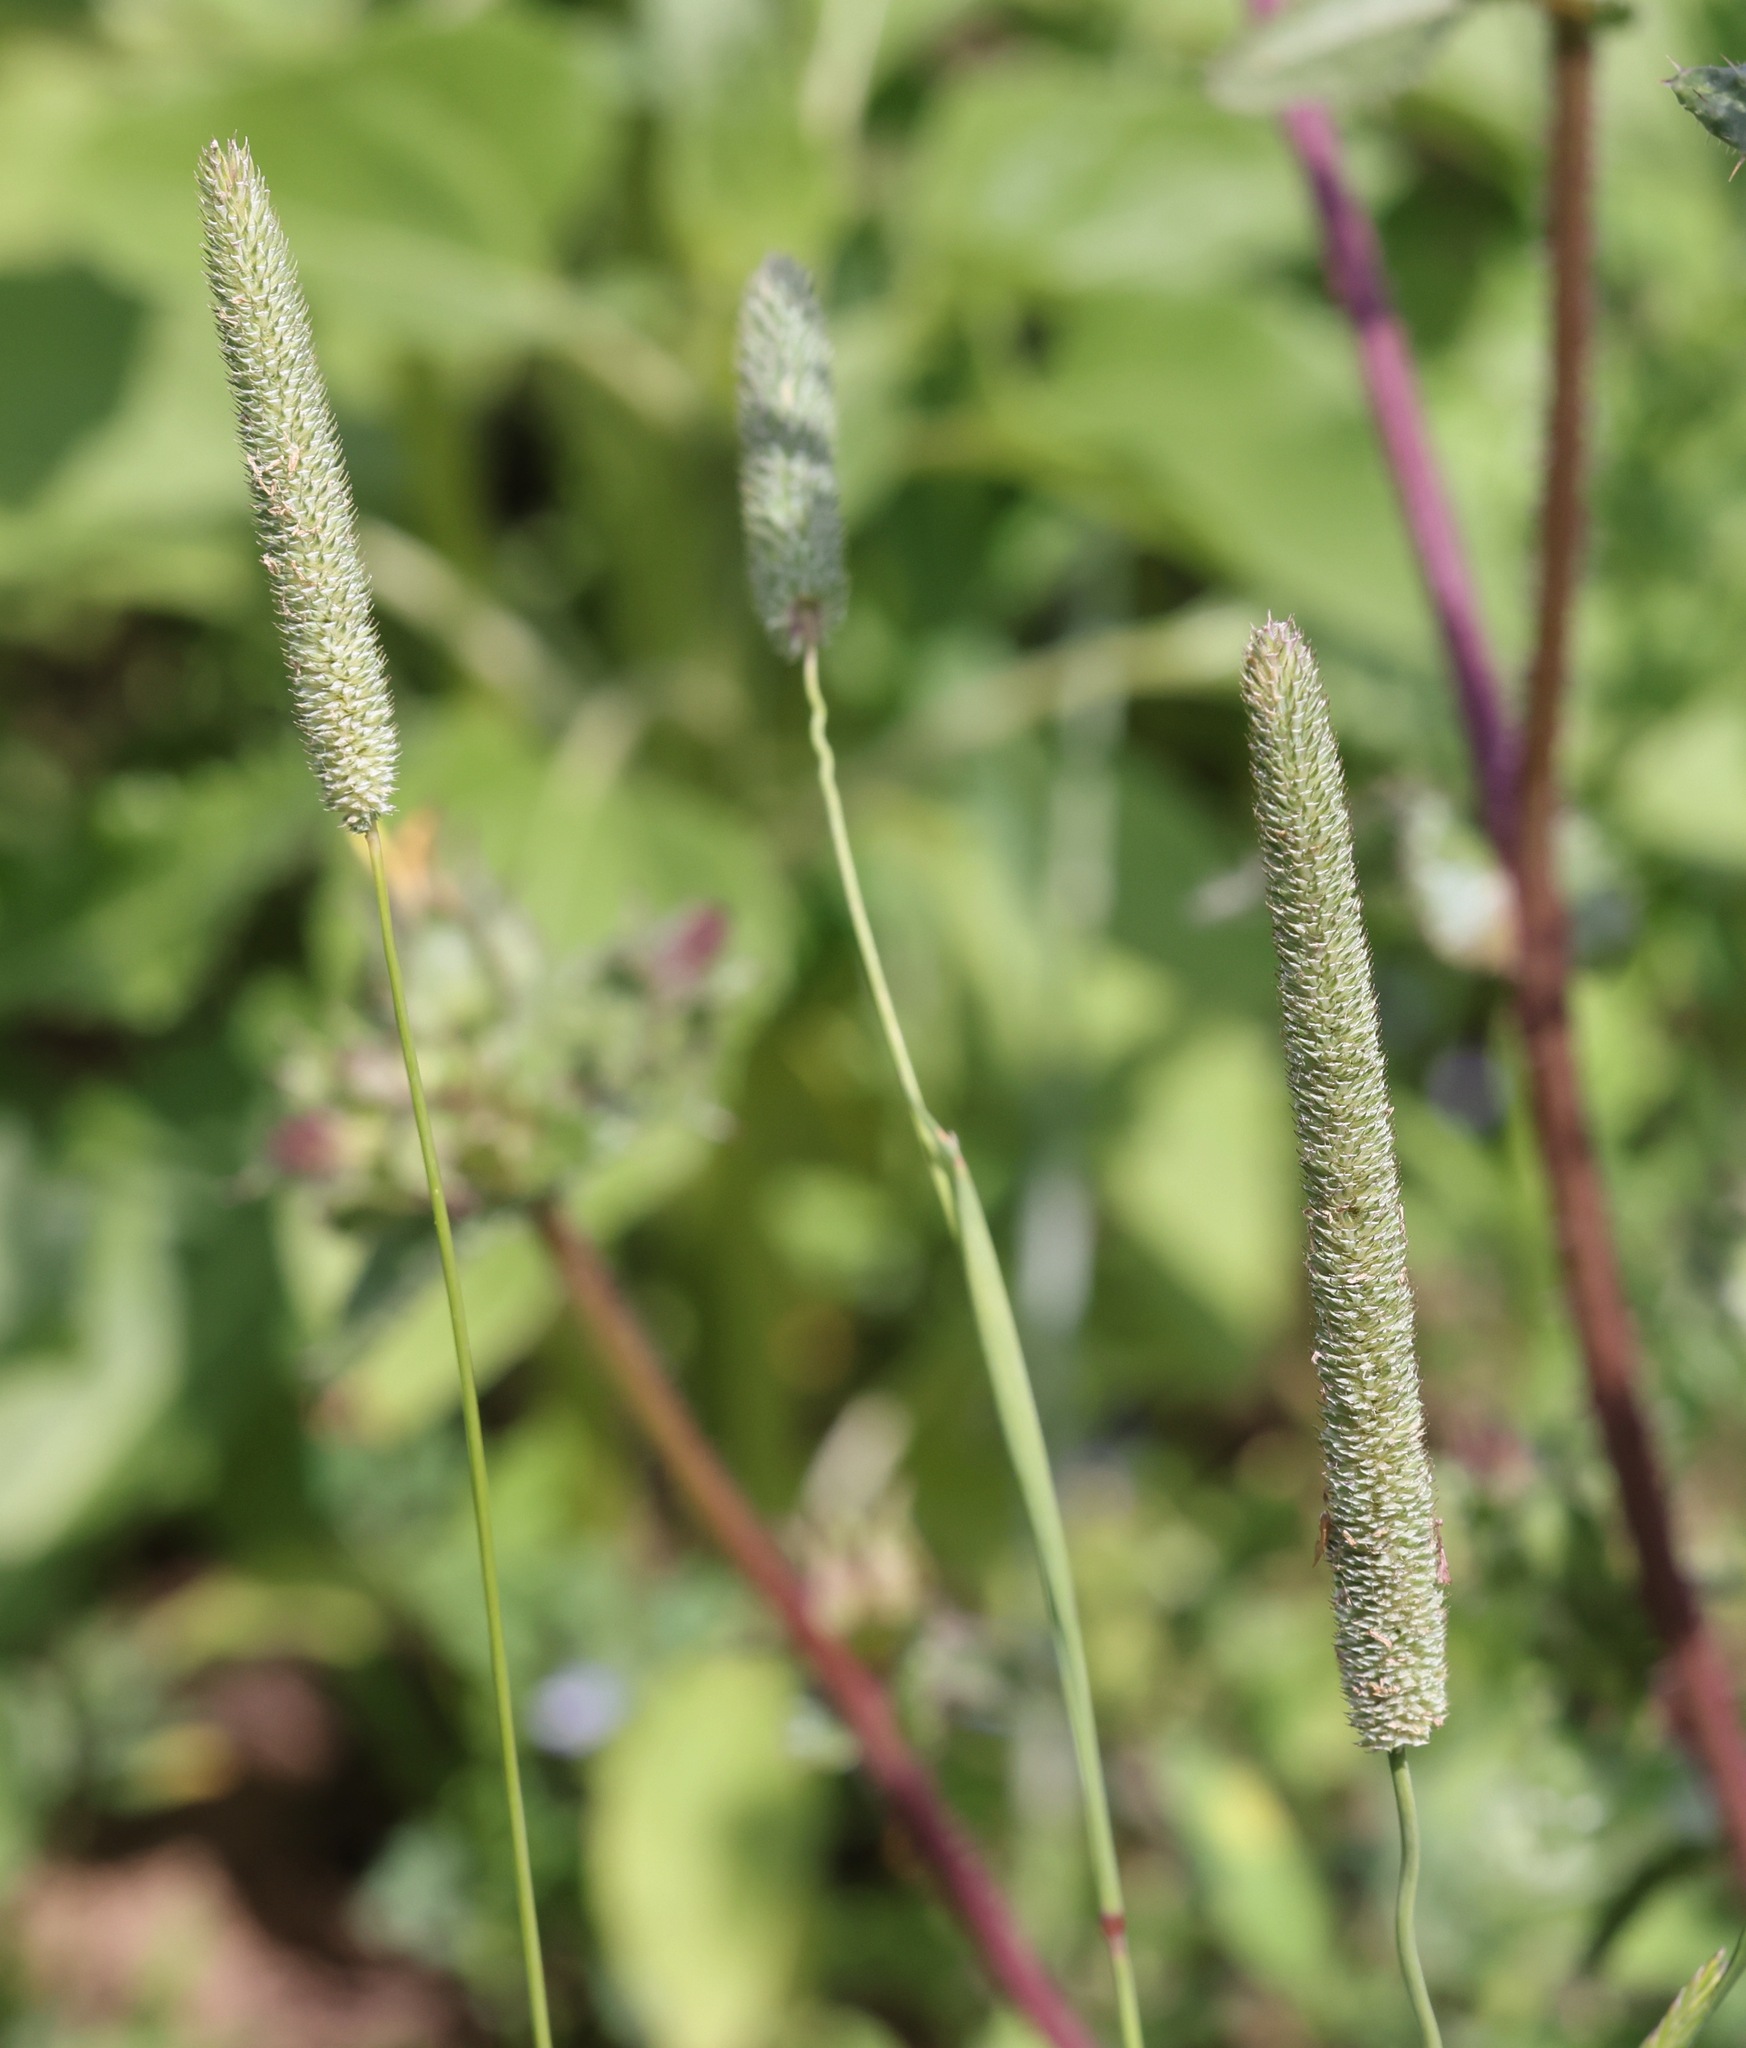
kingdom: Plantae
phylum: Tracheophyta
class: Liliopsida
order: Poales
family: Poaceae
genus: Phleum
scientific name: Phleum pratense
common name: Timothy grass
